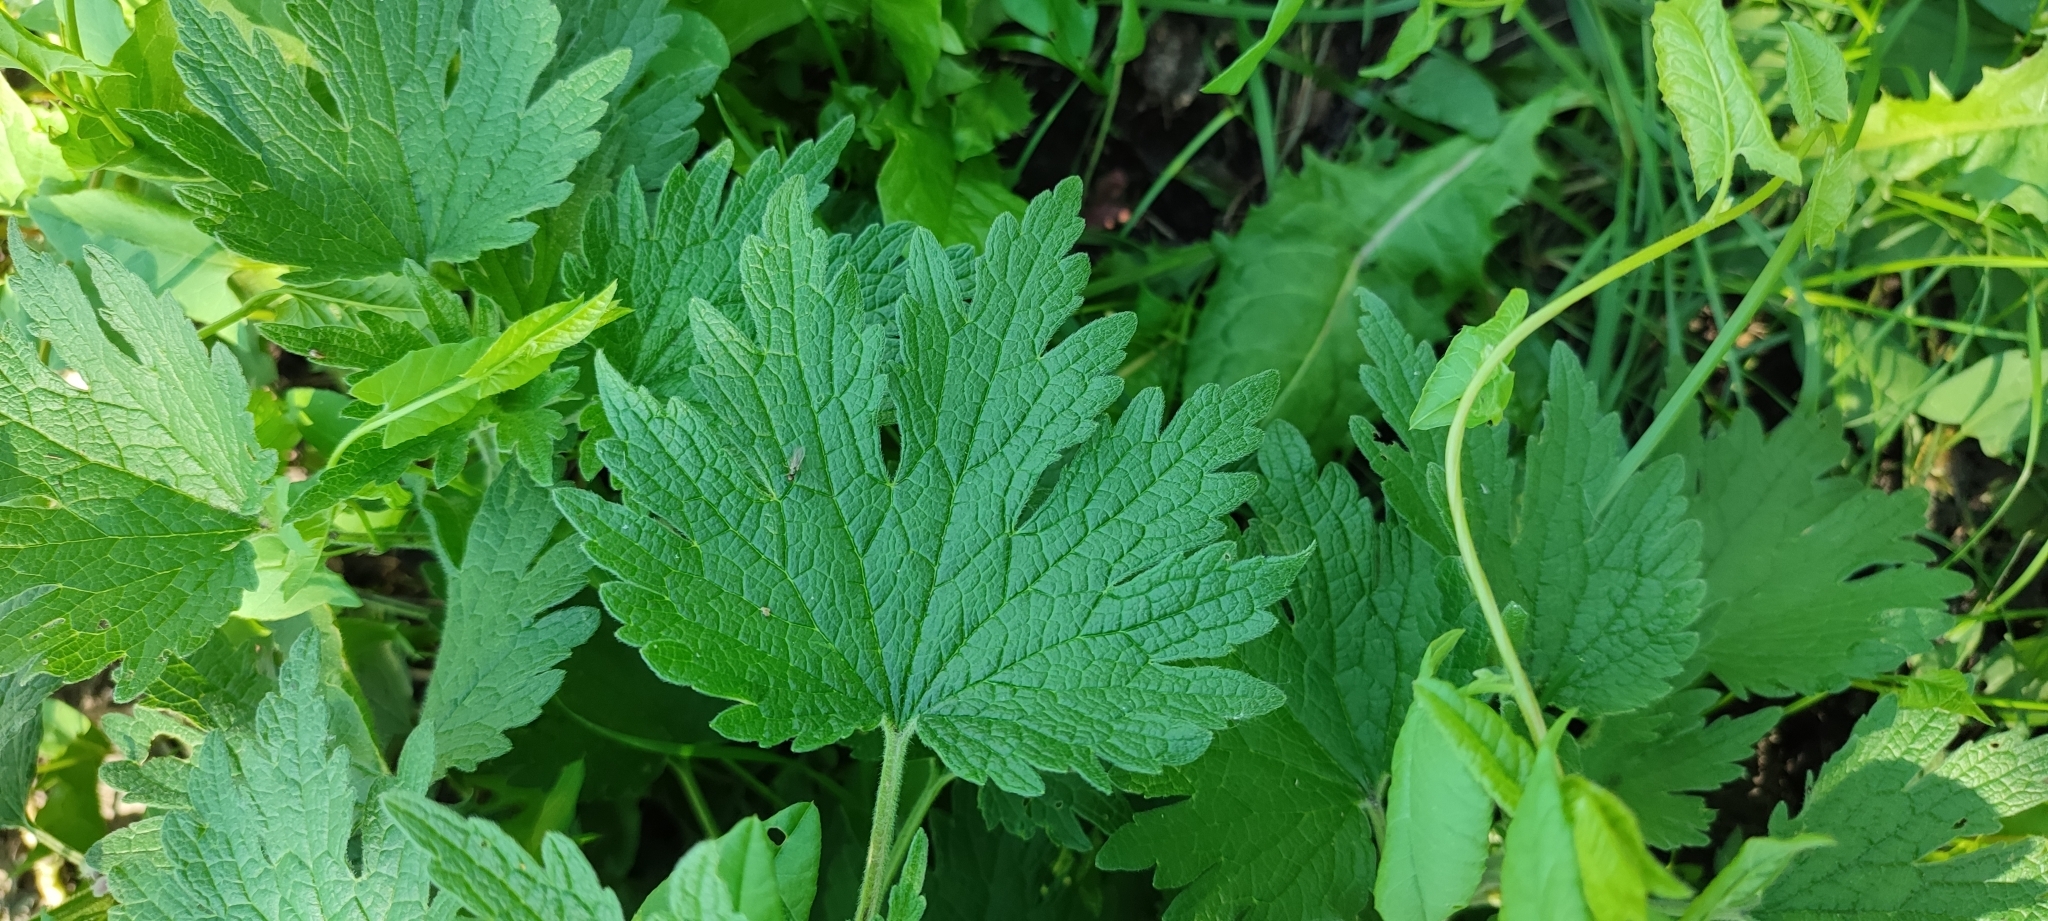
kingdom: Plantae
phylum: Tracheophyta
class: Magnoliopsida
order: Lamiales
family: Lamiaceae
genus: Leonurus
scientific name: Leonurus quinquelobatus
